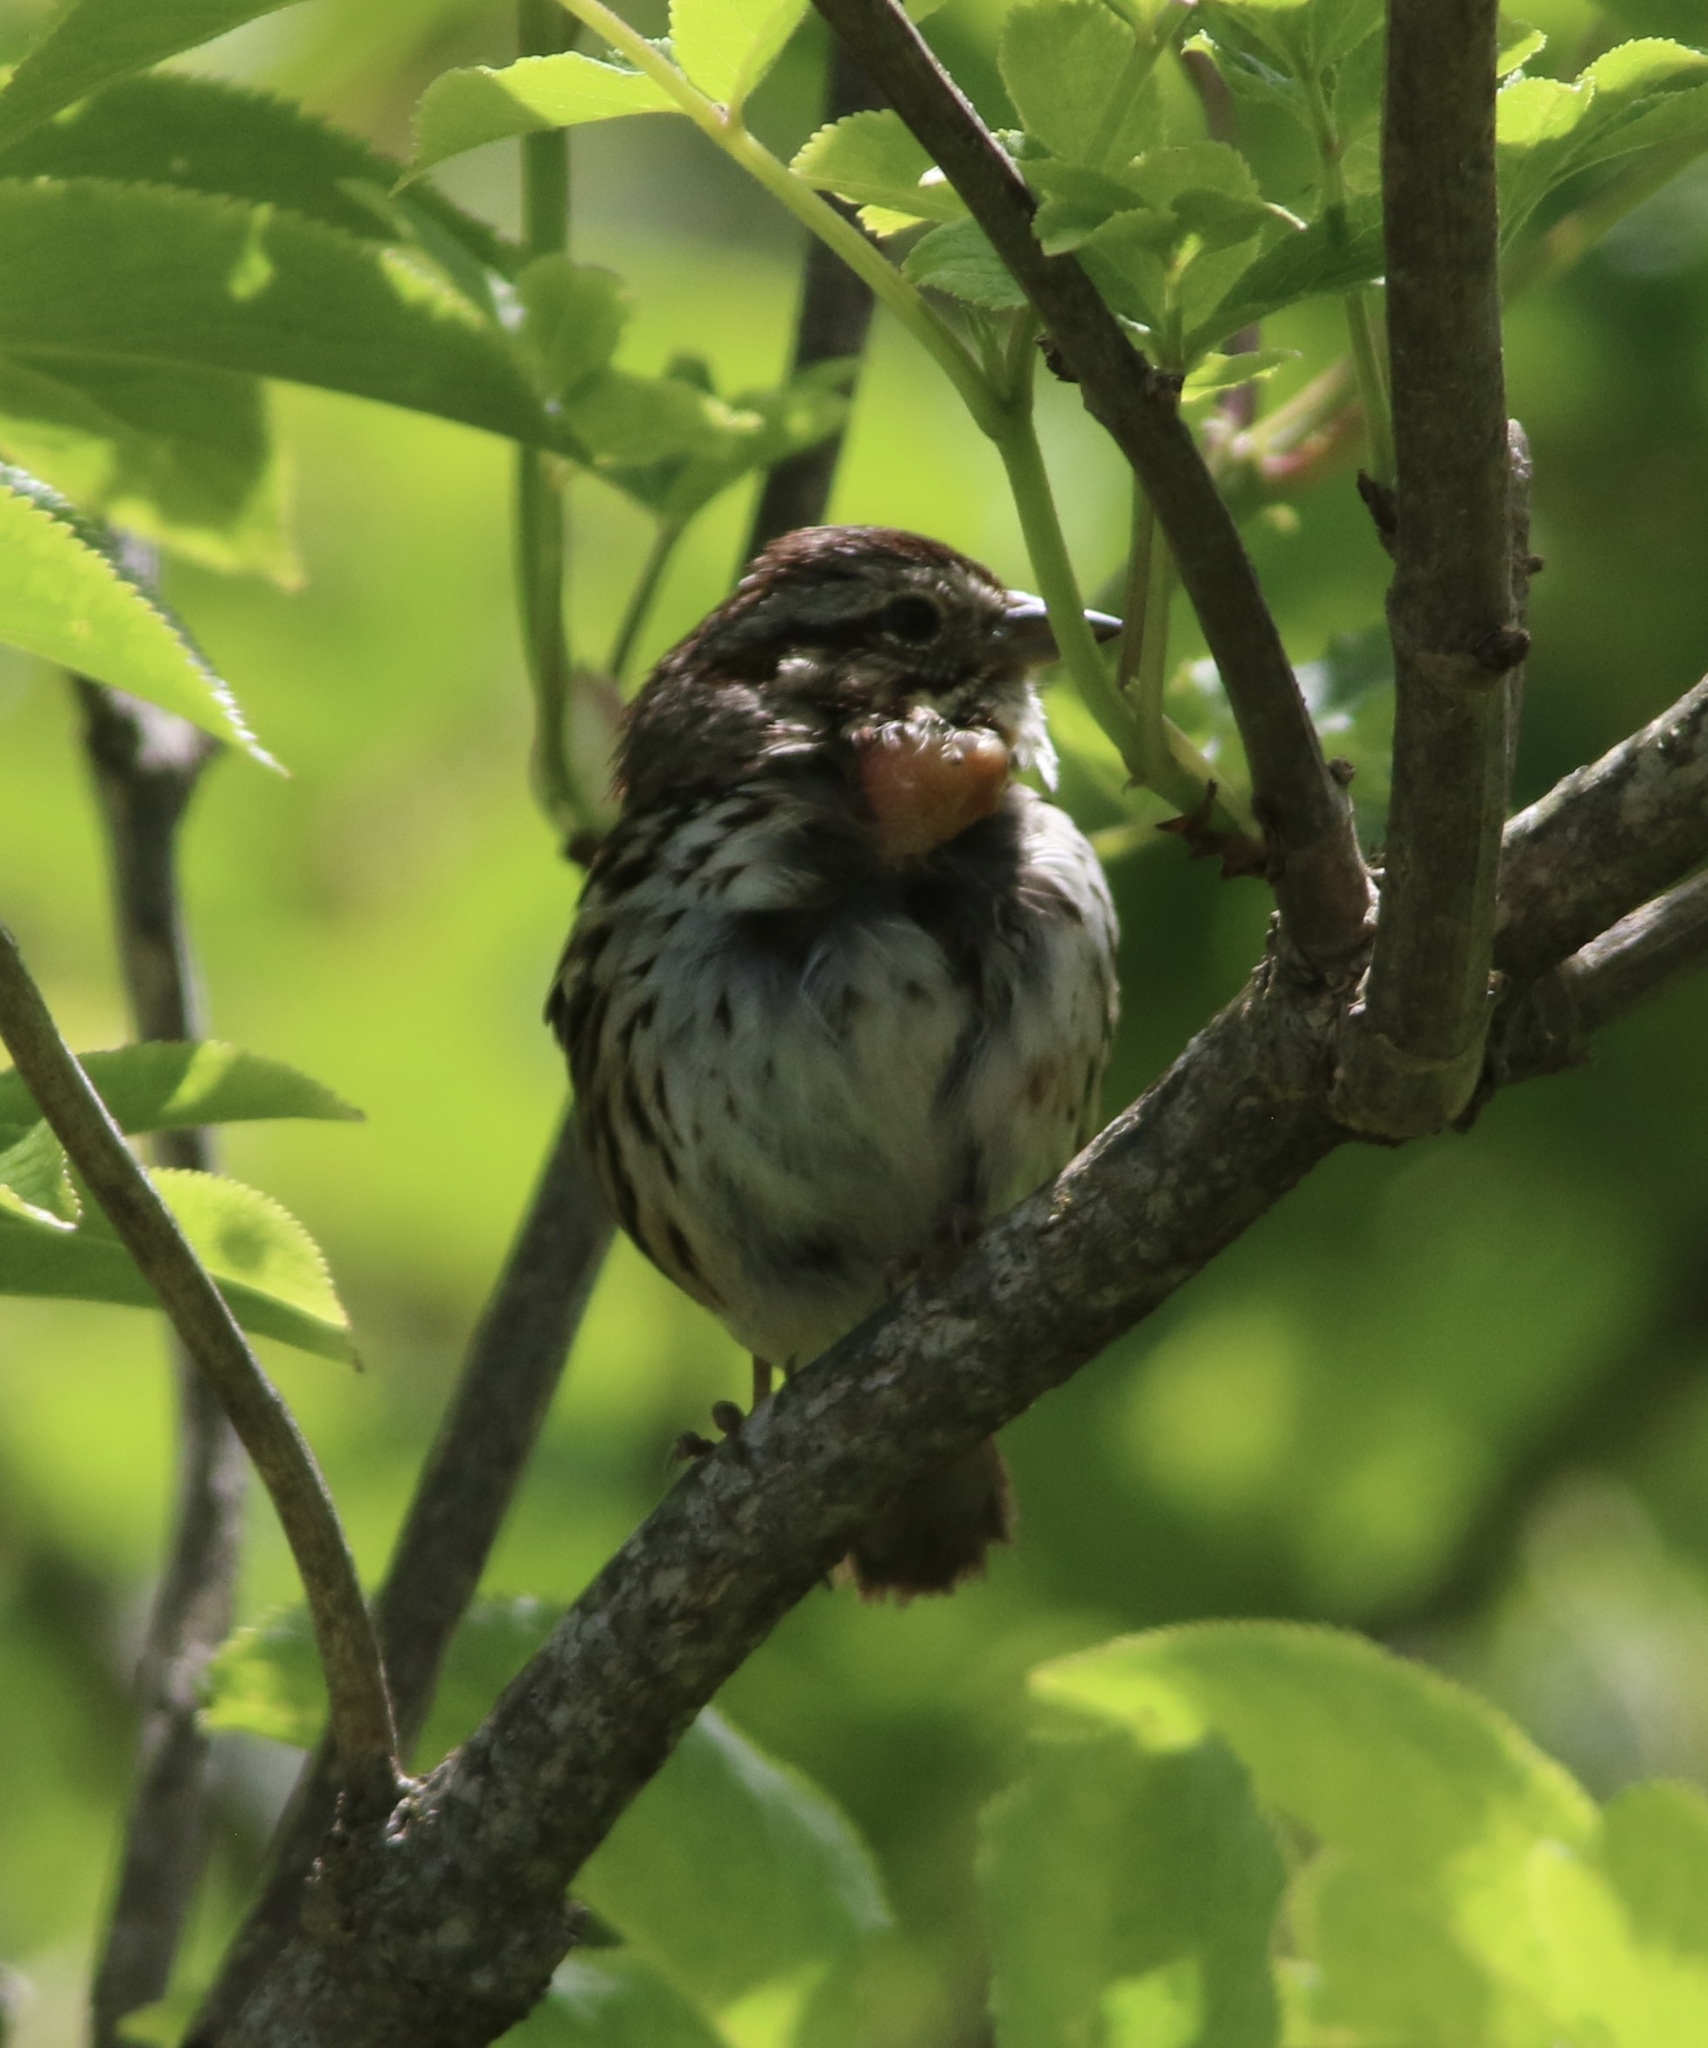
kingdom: Animalia
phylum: Chordata
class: Aves
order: Passeriformes
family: Passerellidae
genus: Melospiza
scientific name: Melospiza melodia
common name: Song sparrow
